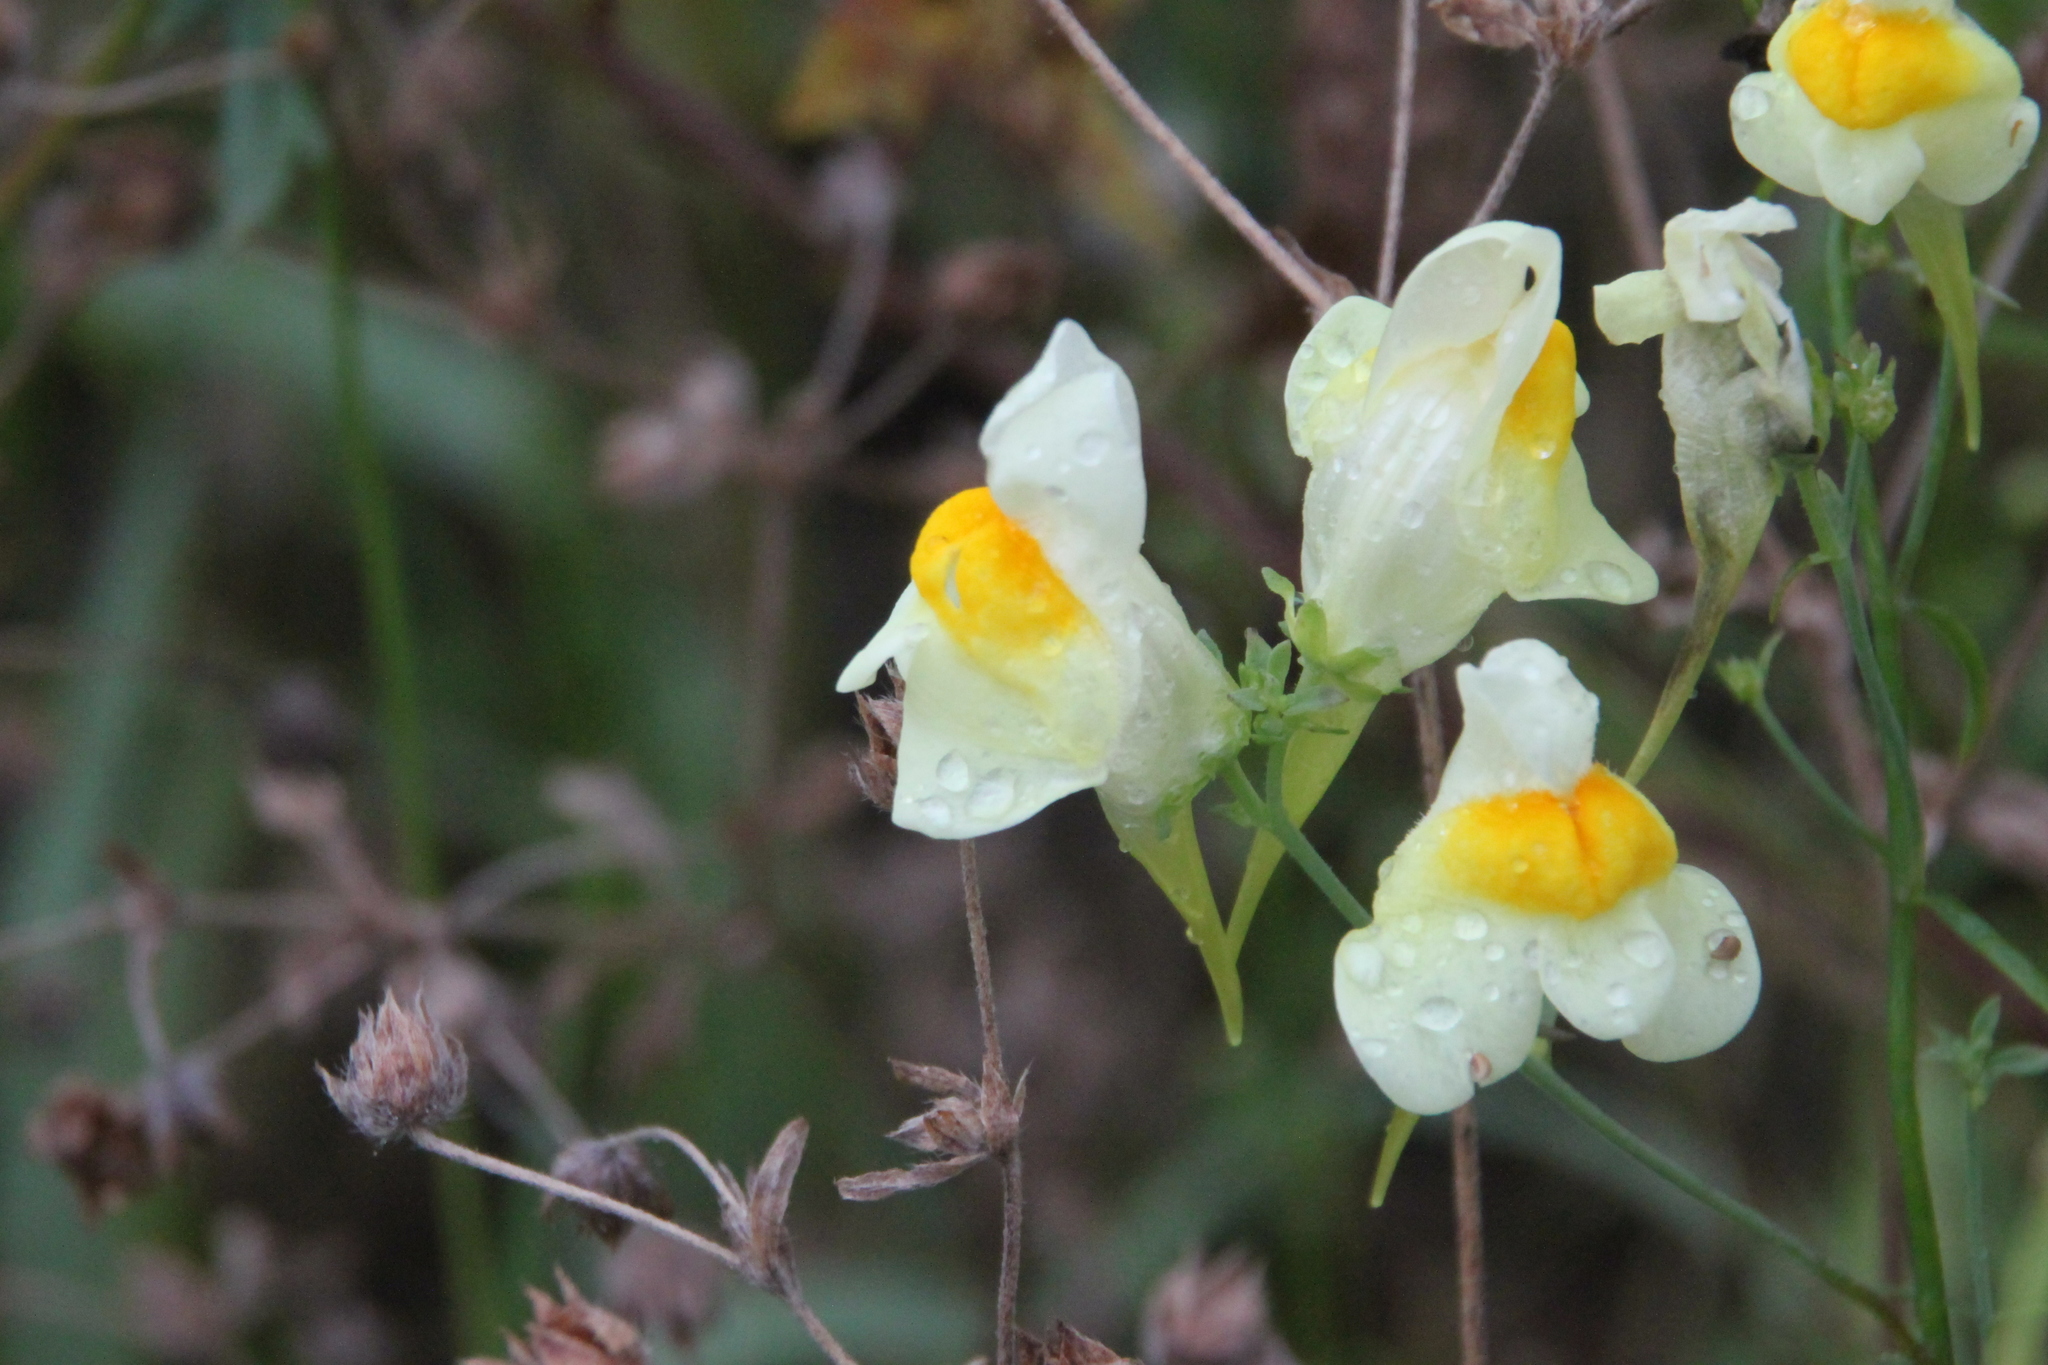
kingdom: Plantae
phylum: Tracheophyta
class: Magnoliopsida
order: Lamiales
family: Plantaginaceae
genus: Linaria
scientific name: Linaria vulgaris
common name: Butter and eggs
